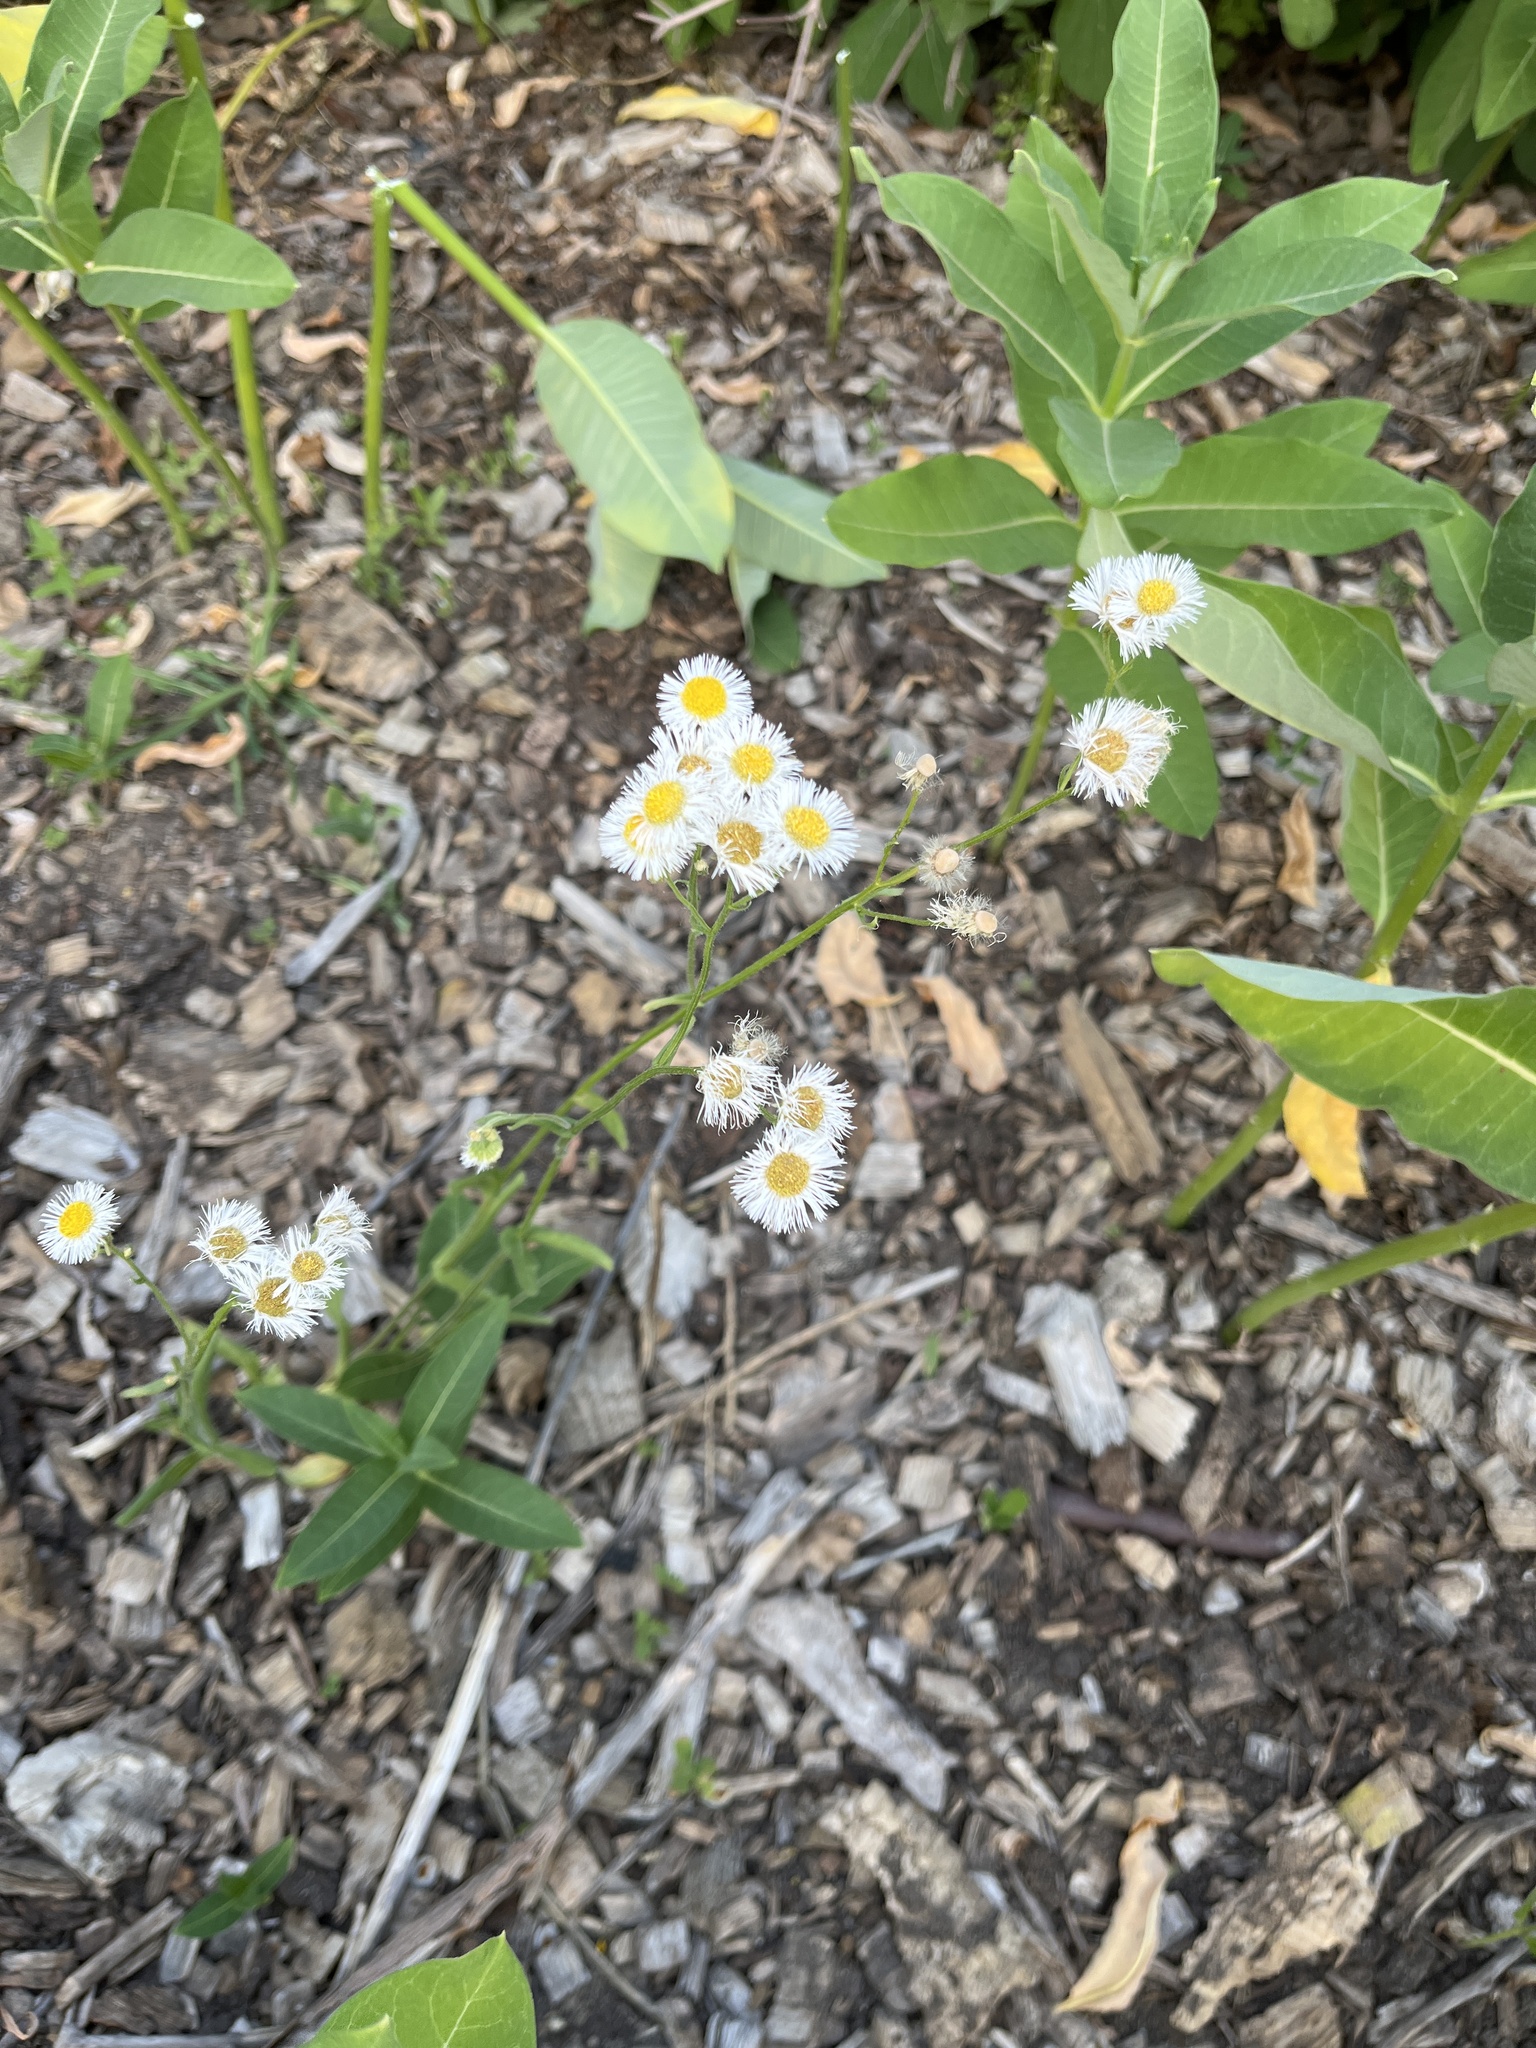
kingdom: Plantae
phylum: Tracheophyta
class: Magnoliopsida
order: Asterales
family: Asteraceae
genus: Erigeron
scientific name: Erigeron philadelphicus
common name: Robin's-plantain
